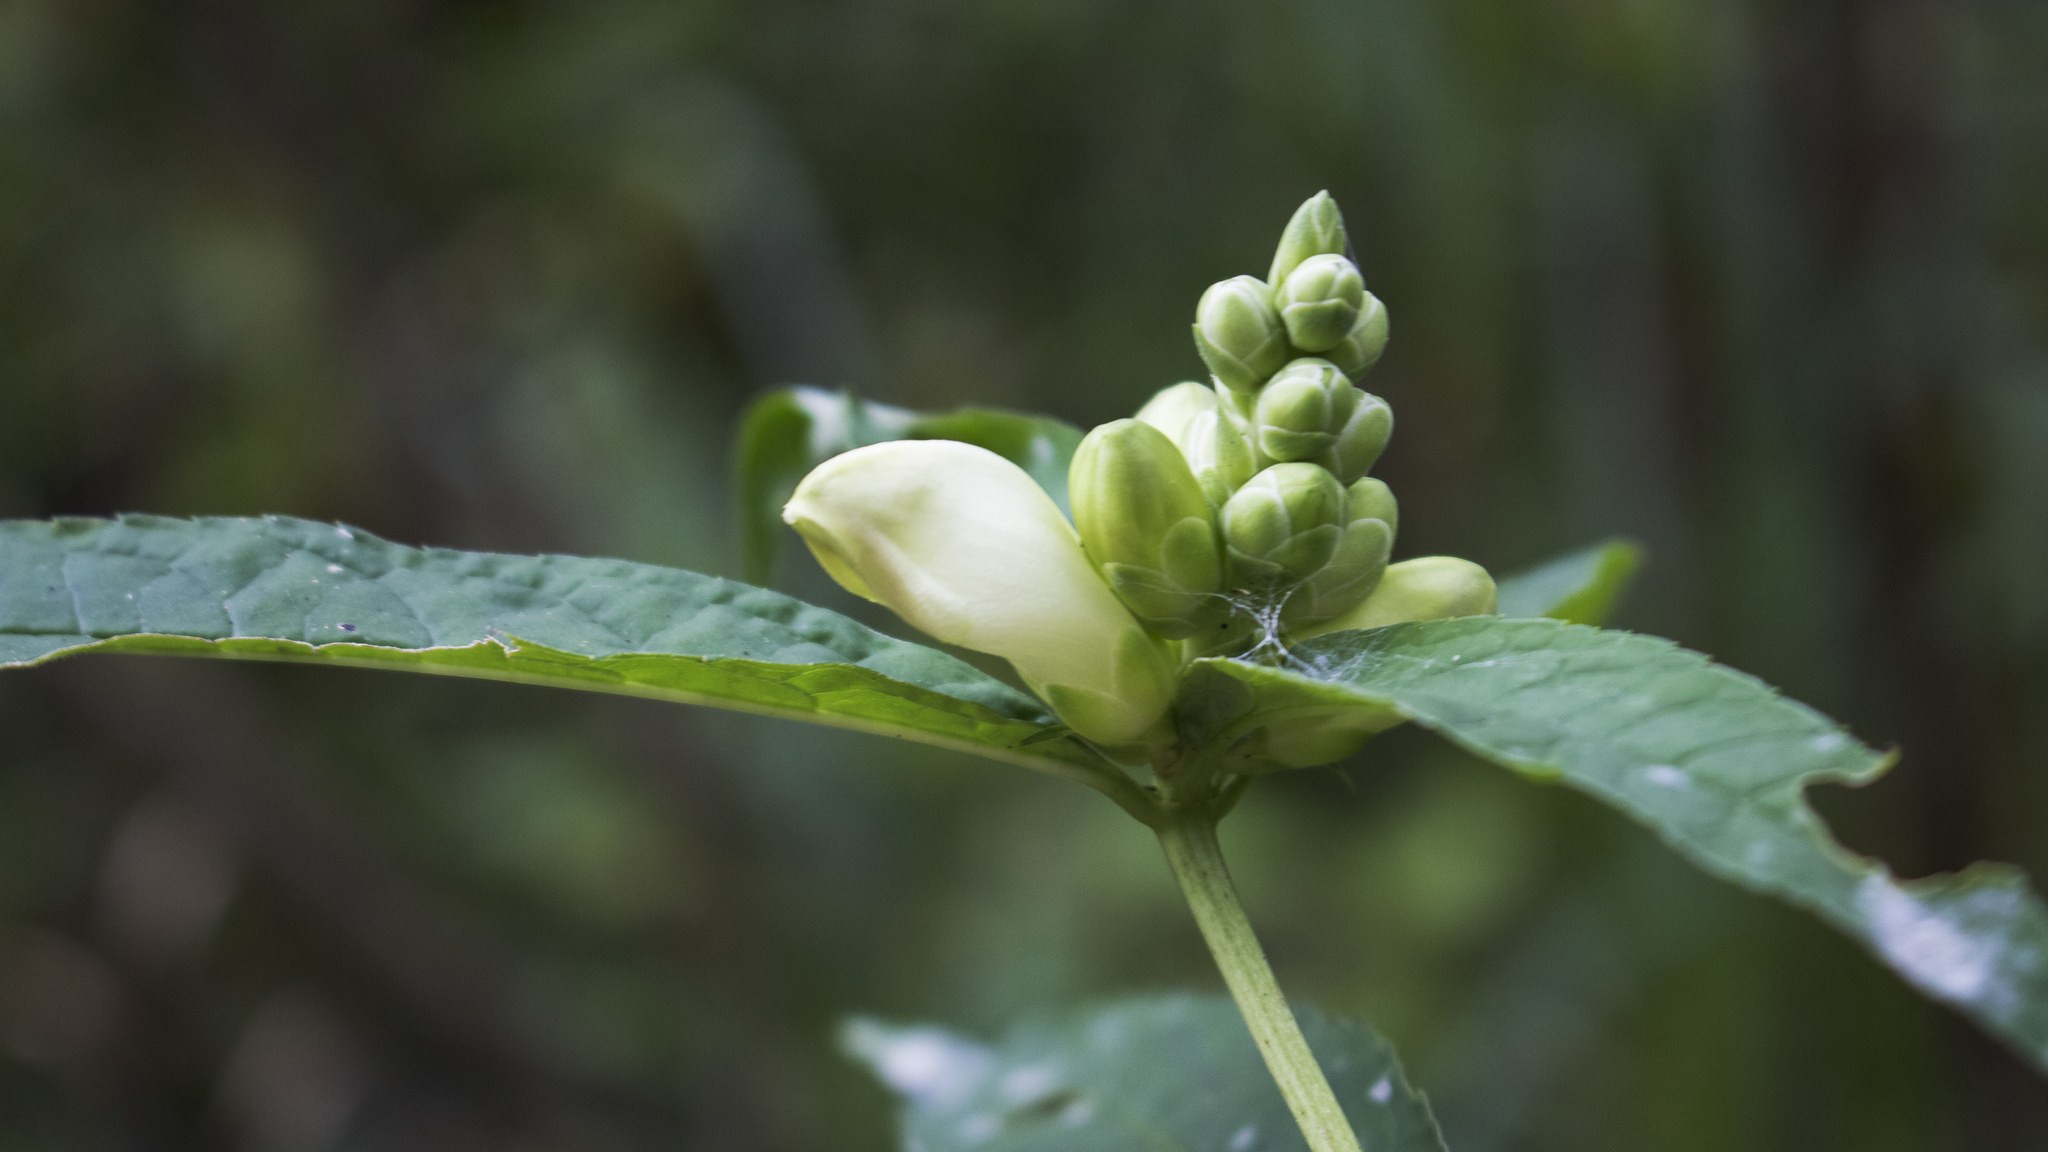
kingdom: Plantae
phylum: Tracheophyta
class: Magnoliopsida
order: Lamiales
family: Plantaginaceae
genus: Chelone
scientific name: Chelone glabra
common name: Snakehead
